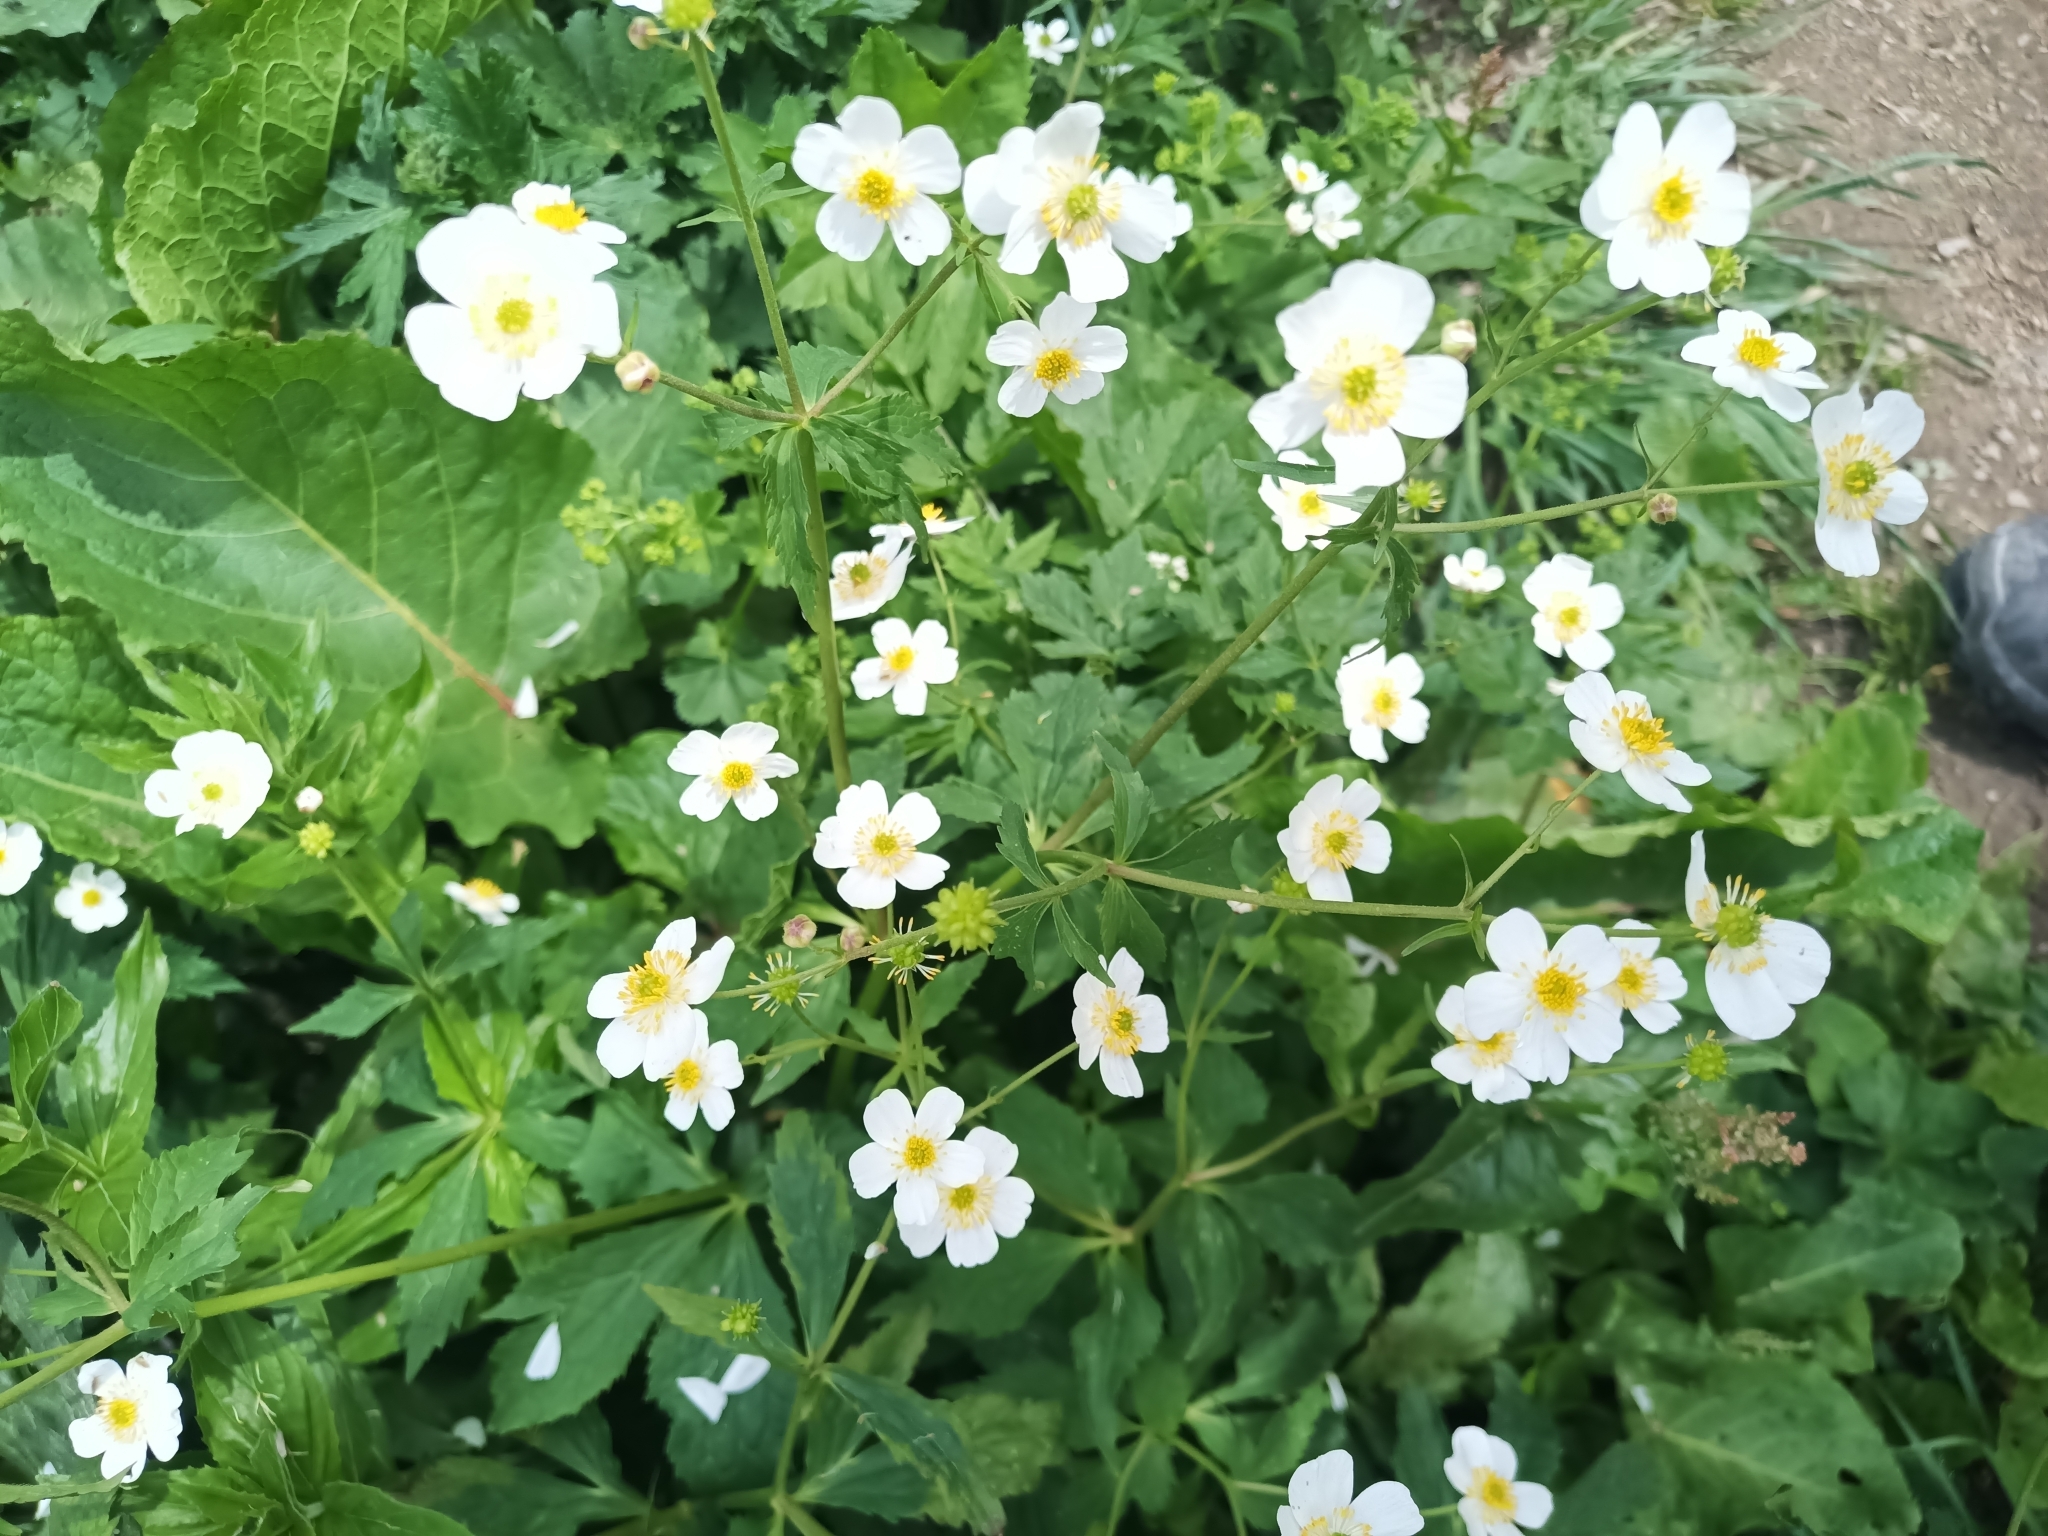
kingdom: Plantae
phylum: Tracheophyta
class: Magnoliopsida
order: Ranunculales
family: Ranunculaceae
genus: Ranunculus
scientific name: Ranunculus aconitifolius
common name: Aconite-leaved buttercup
